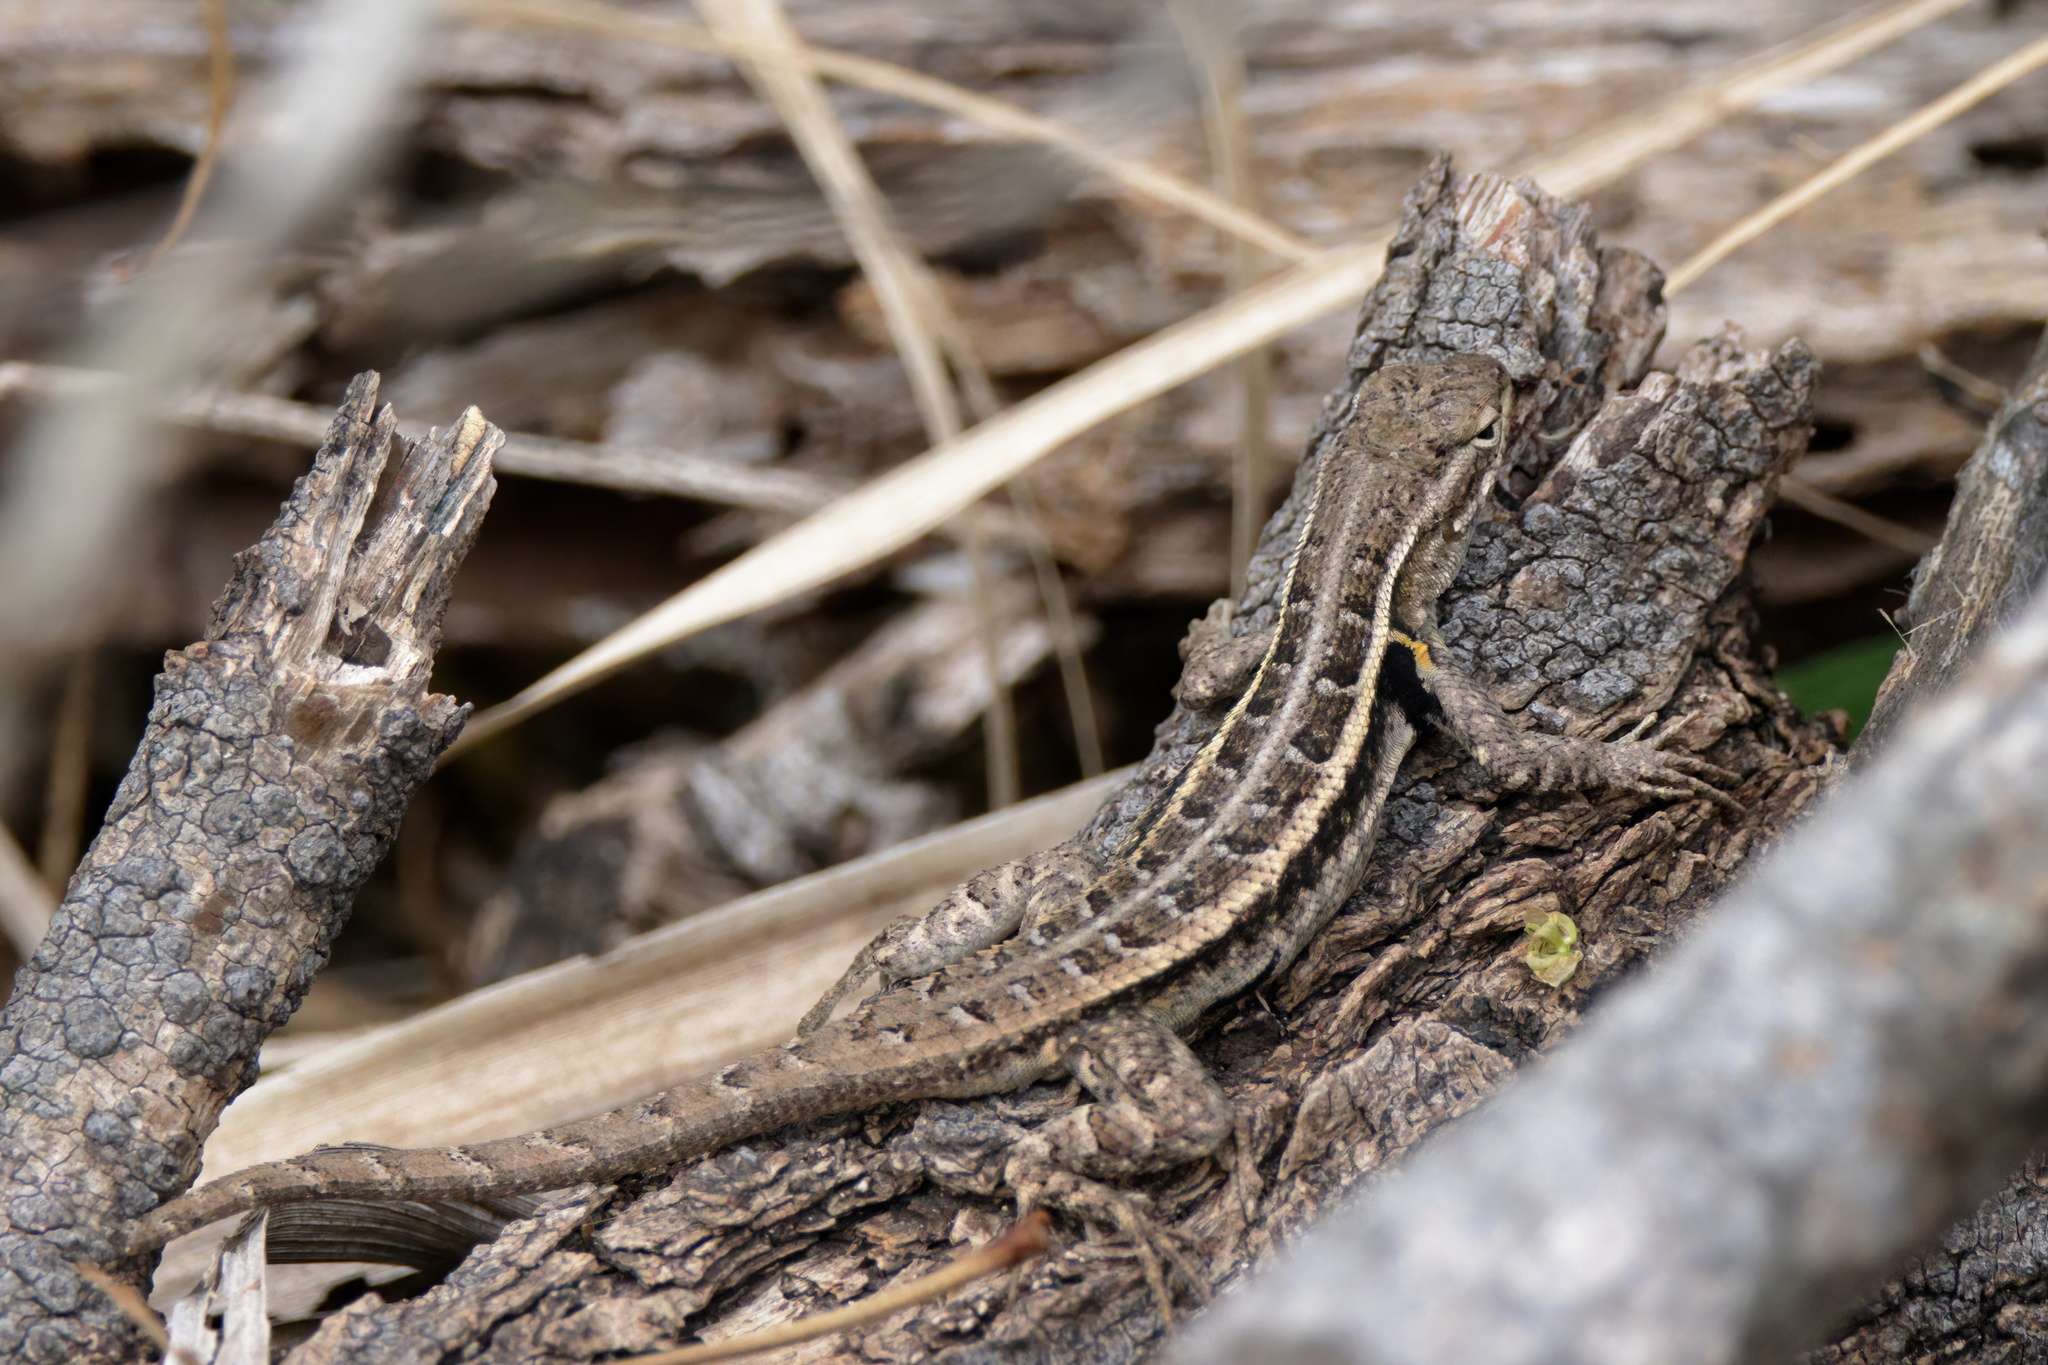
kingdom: Animalia
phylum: Chordata
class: Squamata
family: Phrynosomatidae
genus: Sceloporus
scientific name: Sceloporus variabilis
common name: Rosebelly lizard
